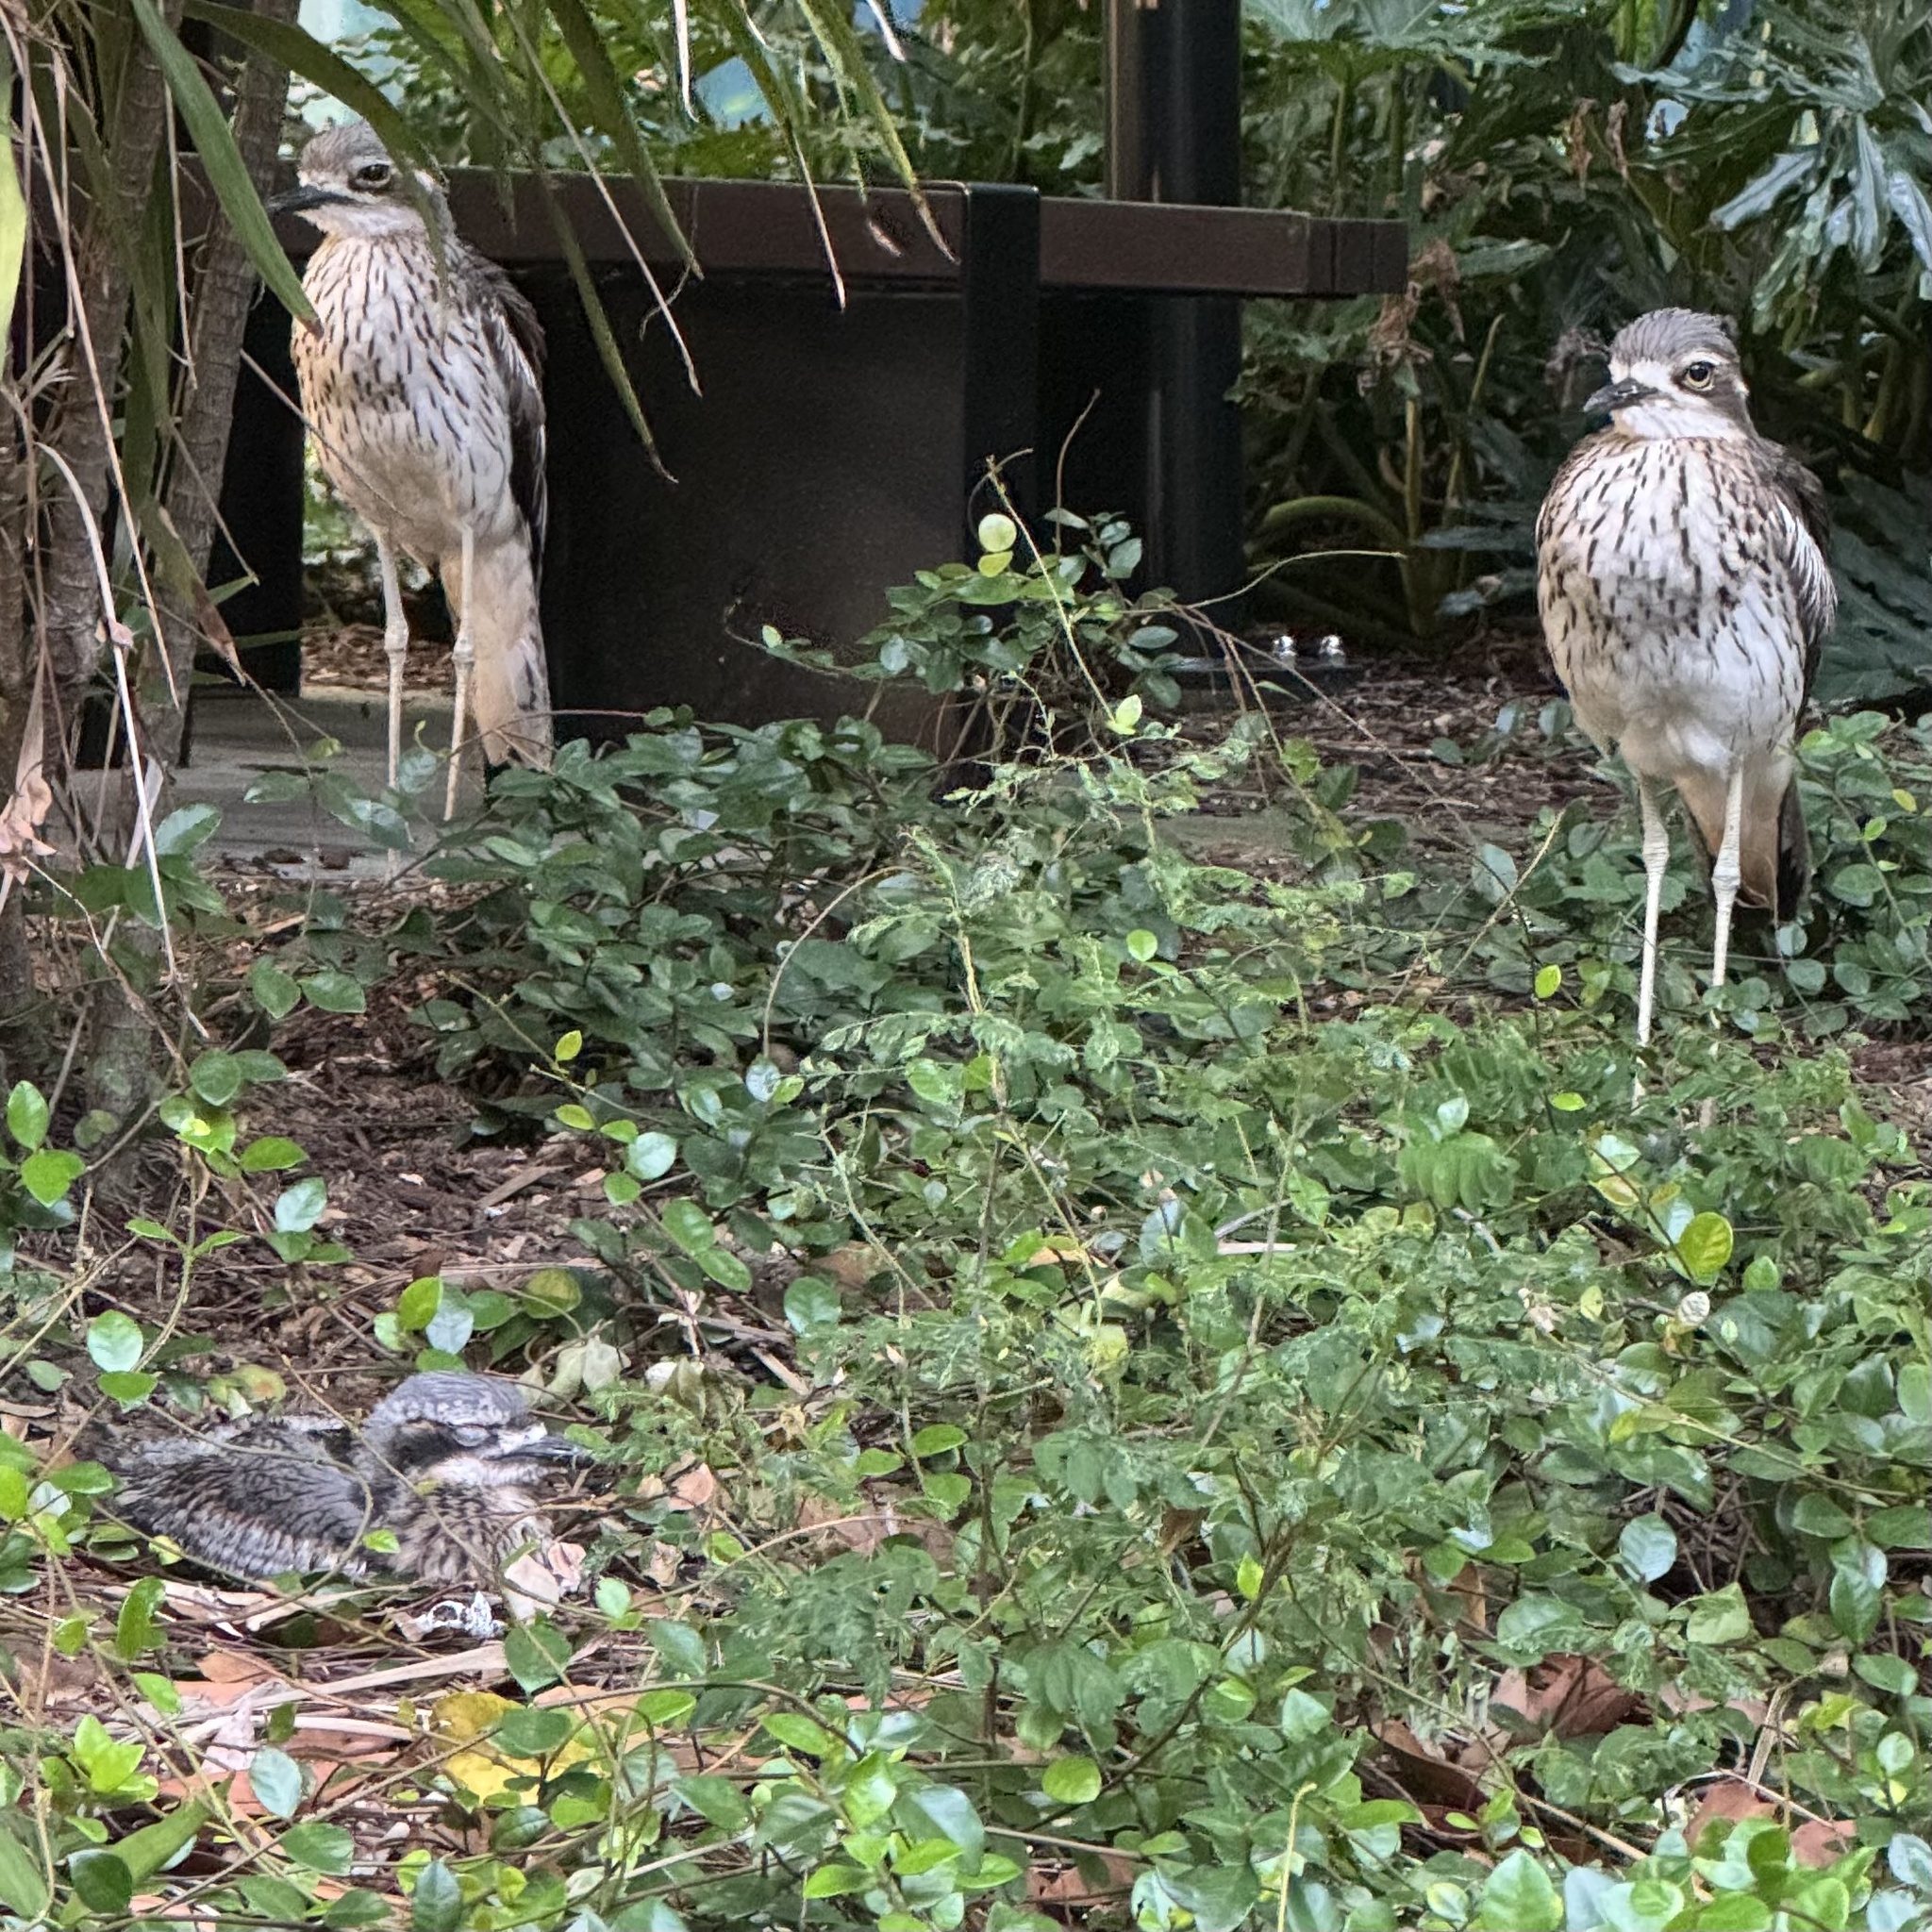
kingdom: Animalia
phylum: Chordata
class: Aves
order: Charadriiformes
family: Burhinidae
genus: Burhinus
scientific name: Burhinus grallarius
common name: Bush stone-curlew
